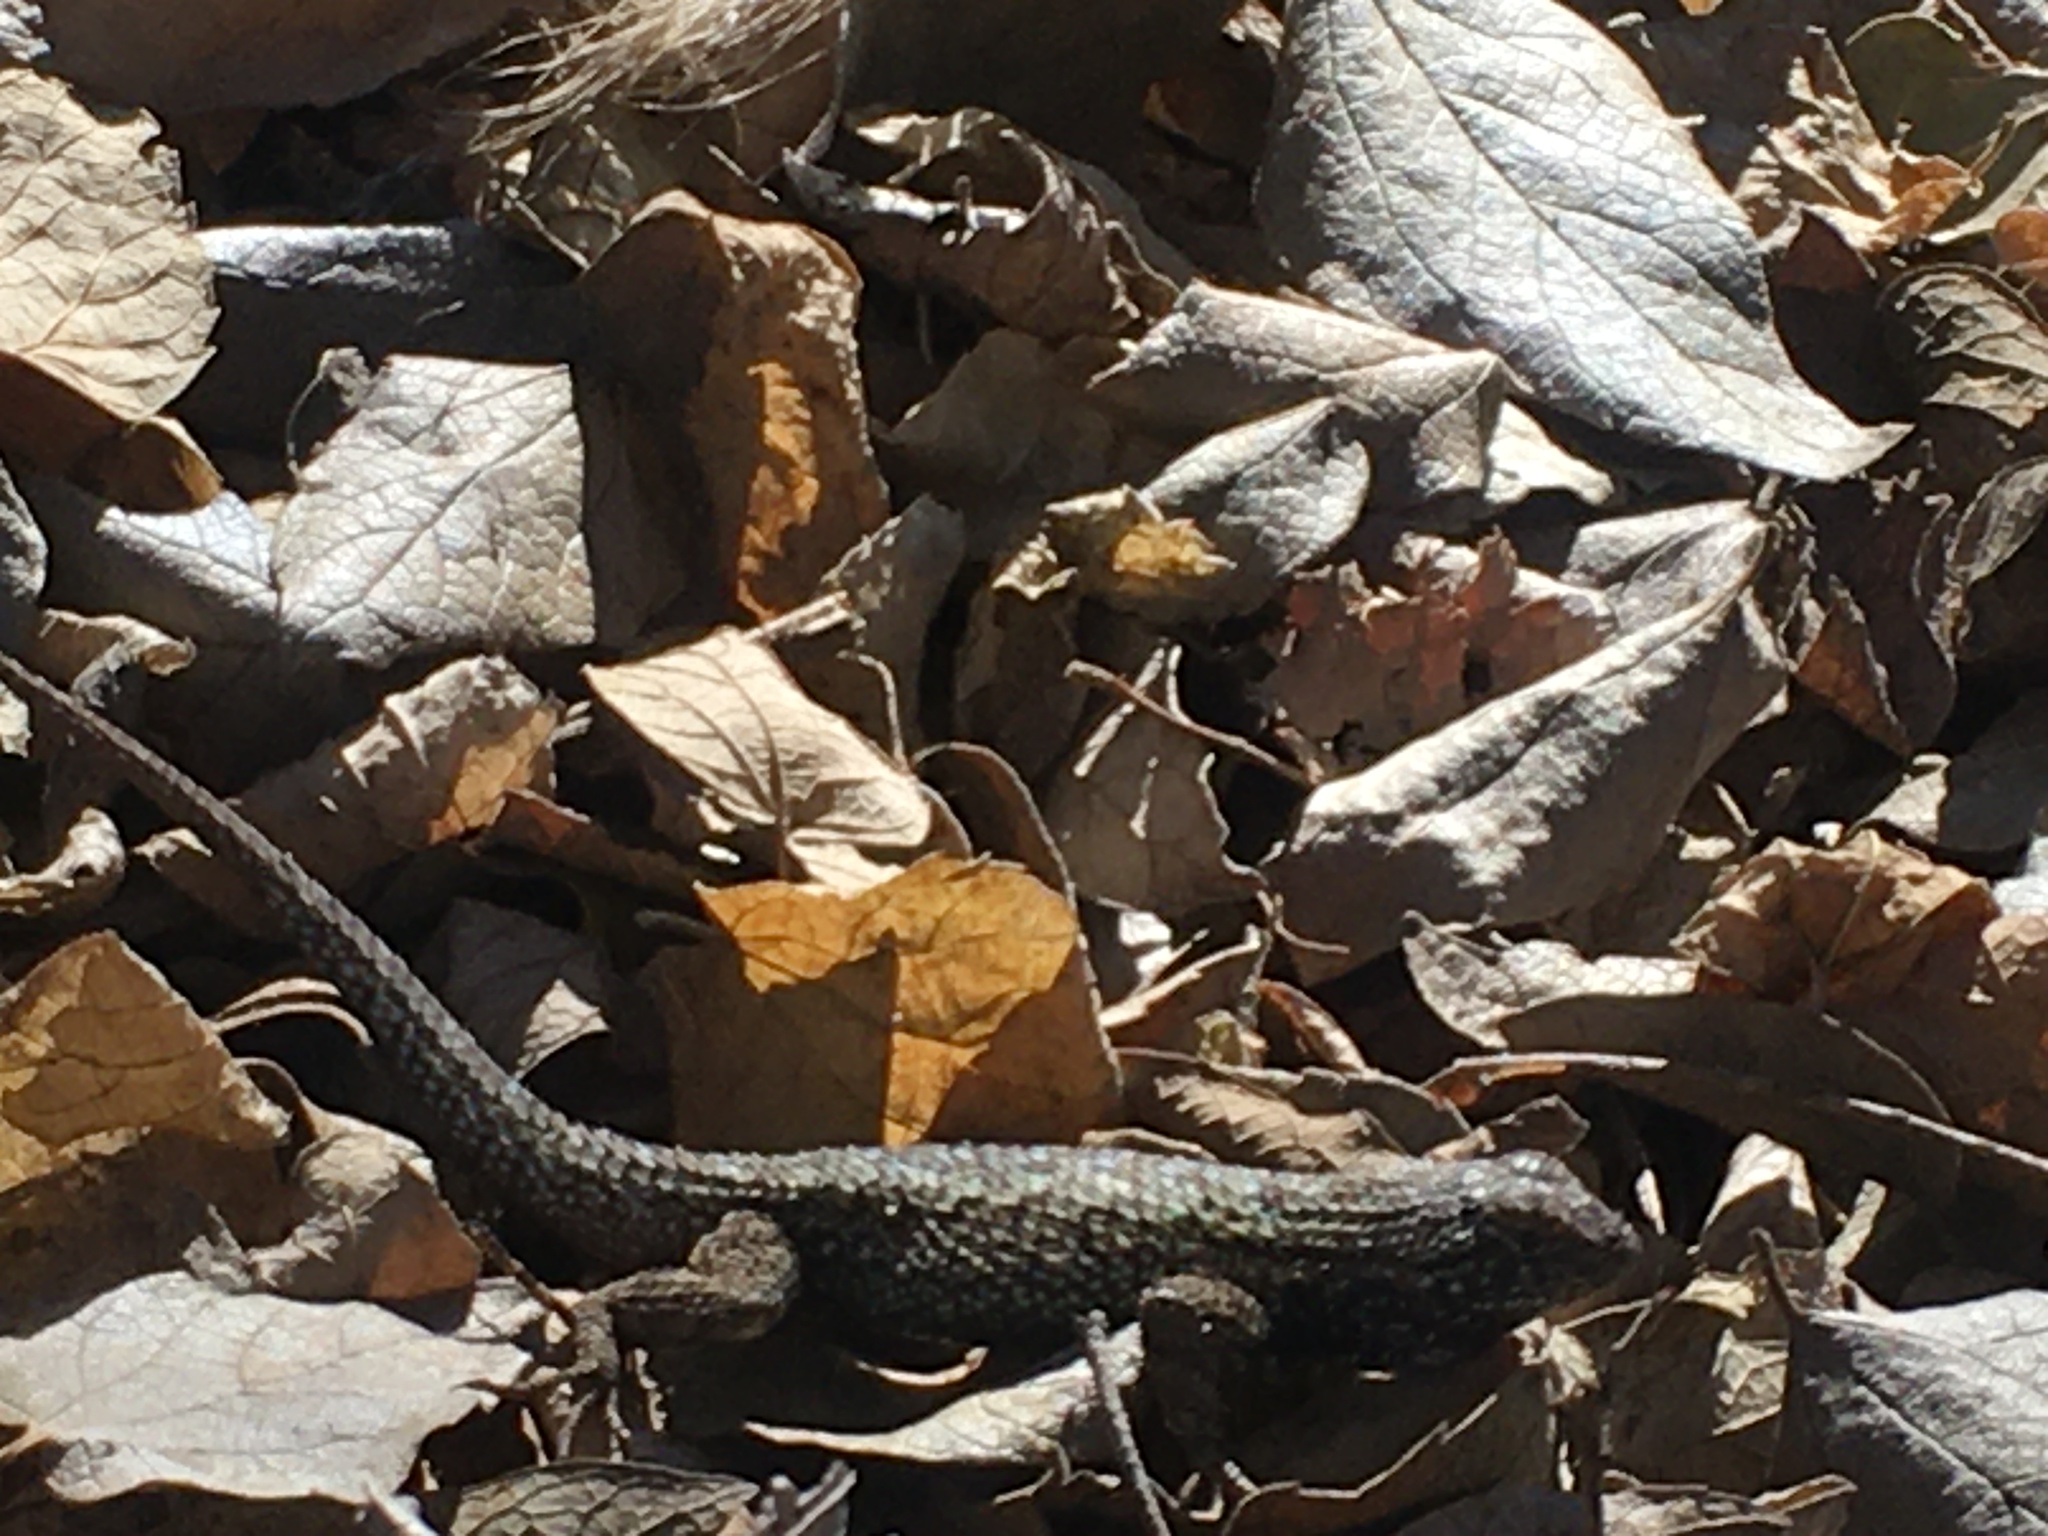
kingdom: Animalia
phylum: Chordata
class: Squamata
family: Phrynosomatidae
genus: Sceloporus
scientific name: Sceloporus occidentalis
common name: Western fence lizard
